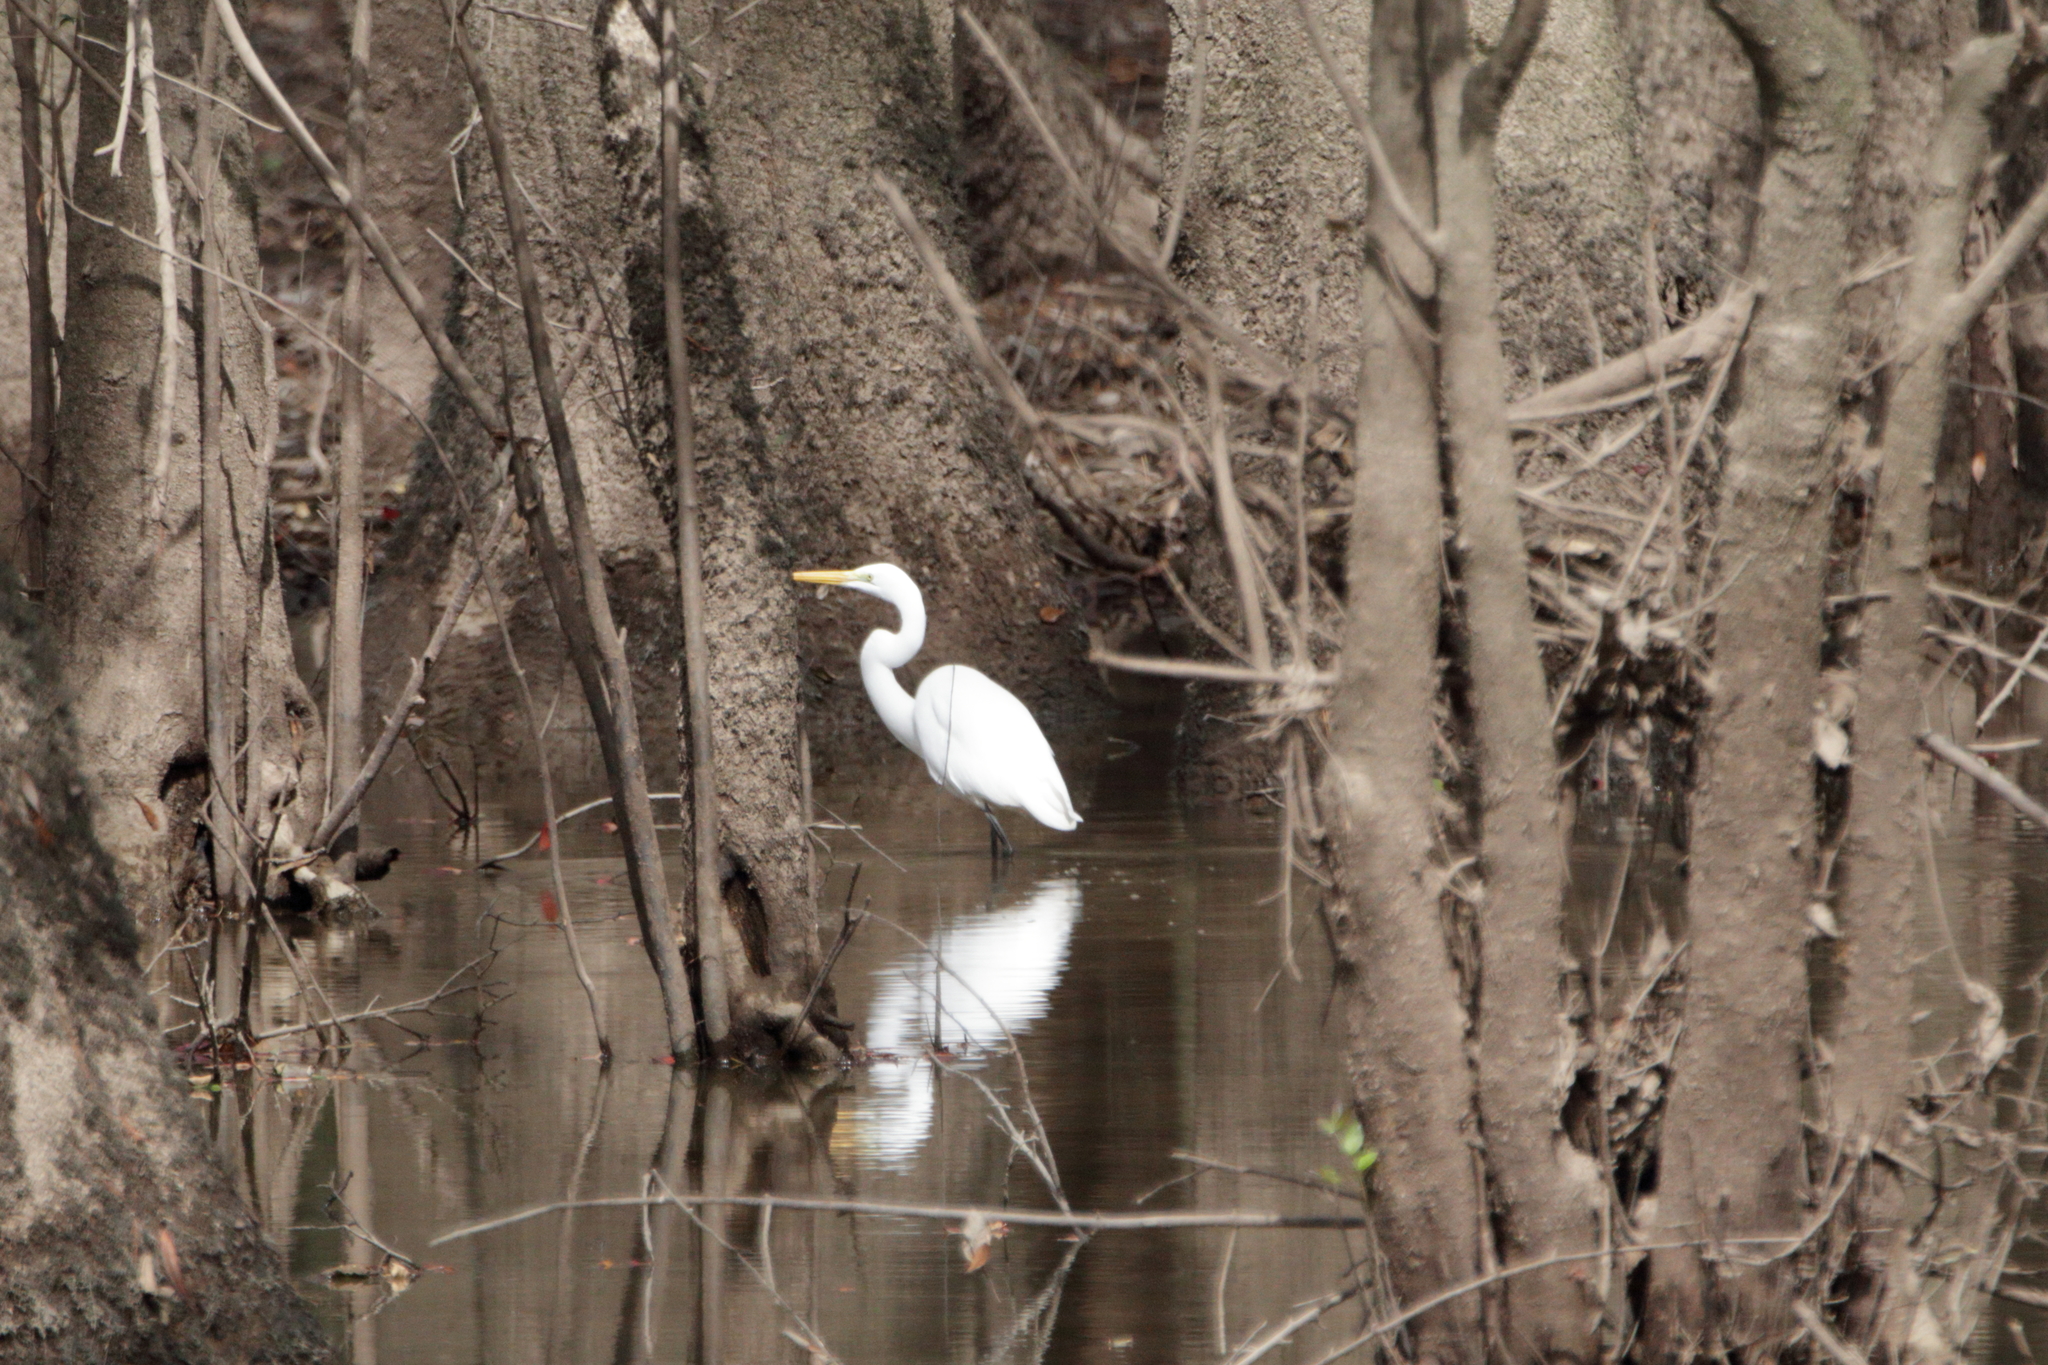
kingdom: Animalia
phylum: Chordata
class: Aves
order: Pelecaniformes
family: Ardeidae
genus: Ardea
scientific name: Ardea alba
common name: Great egret
